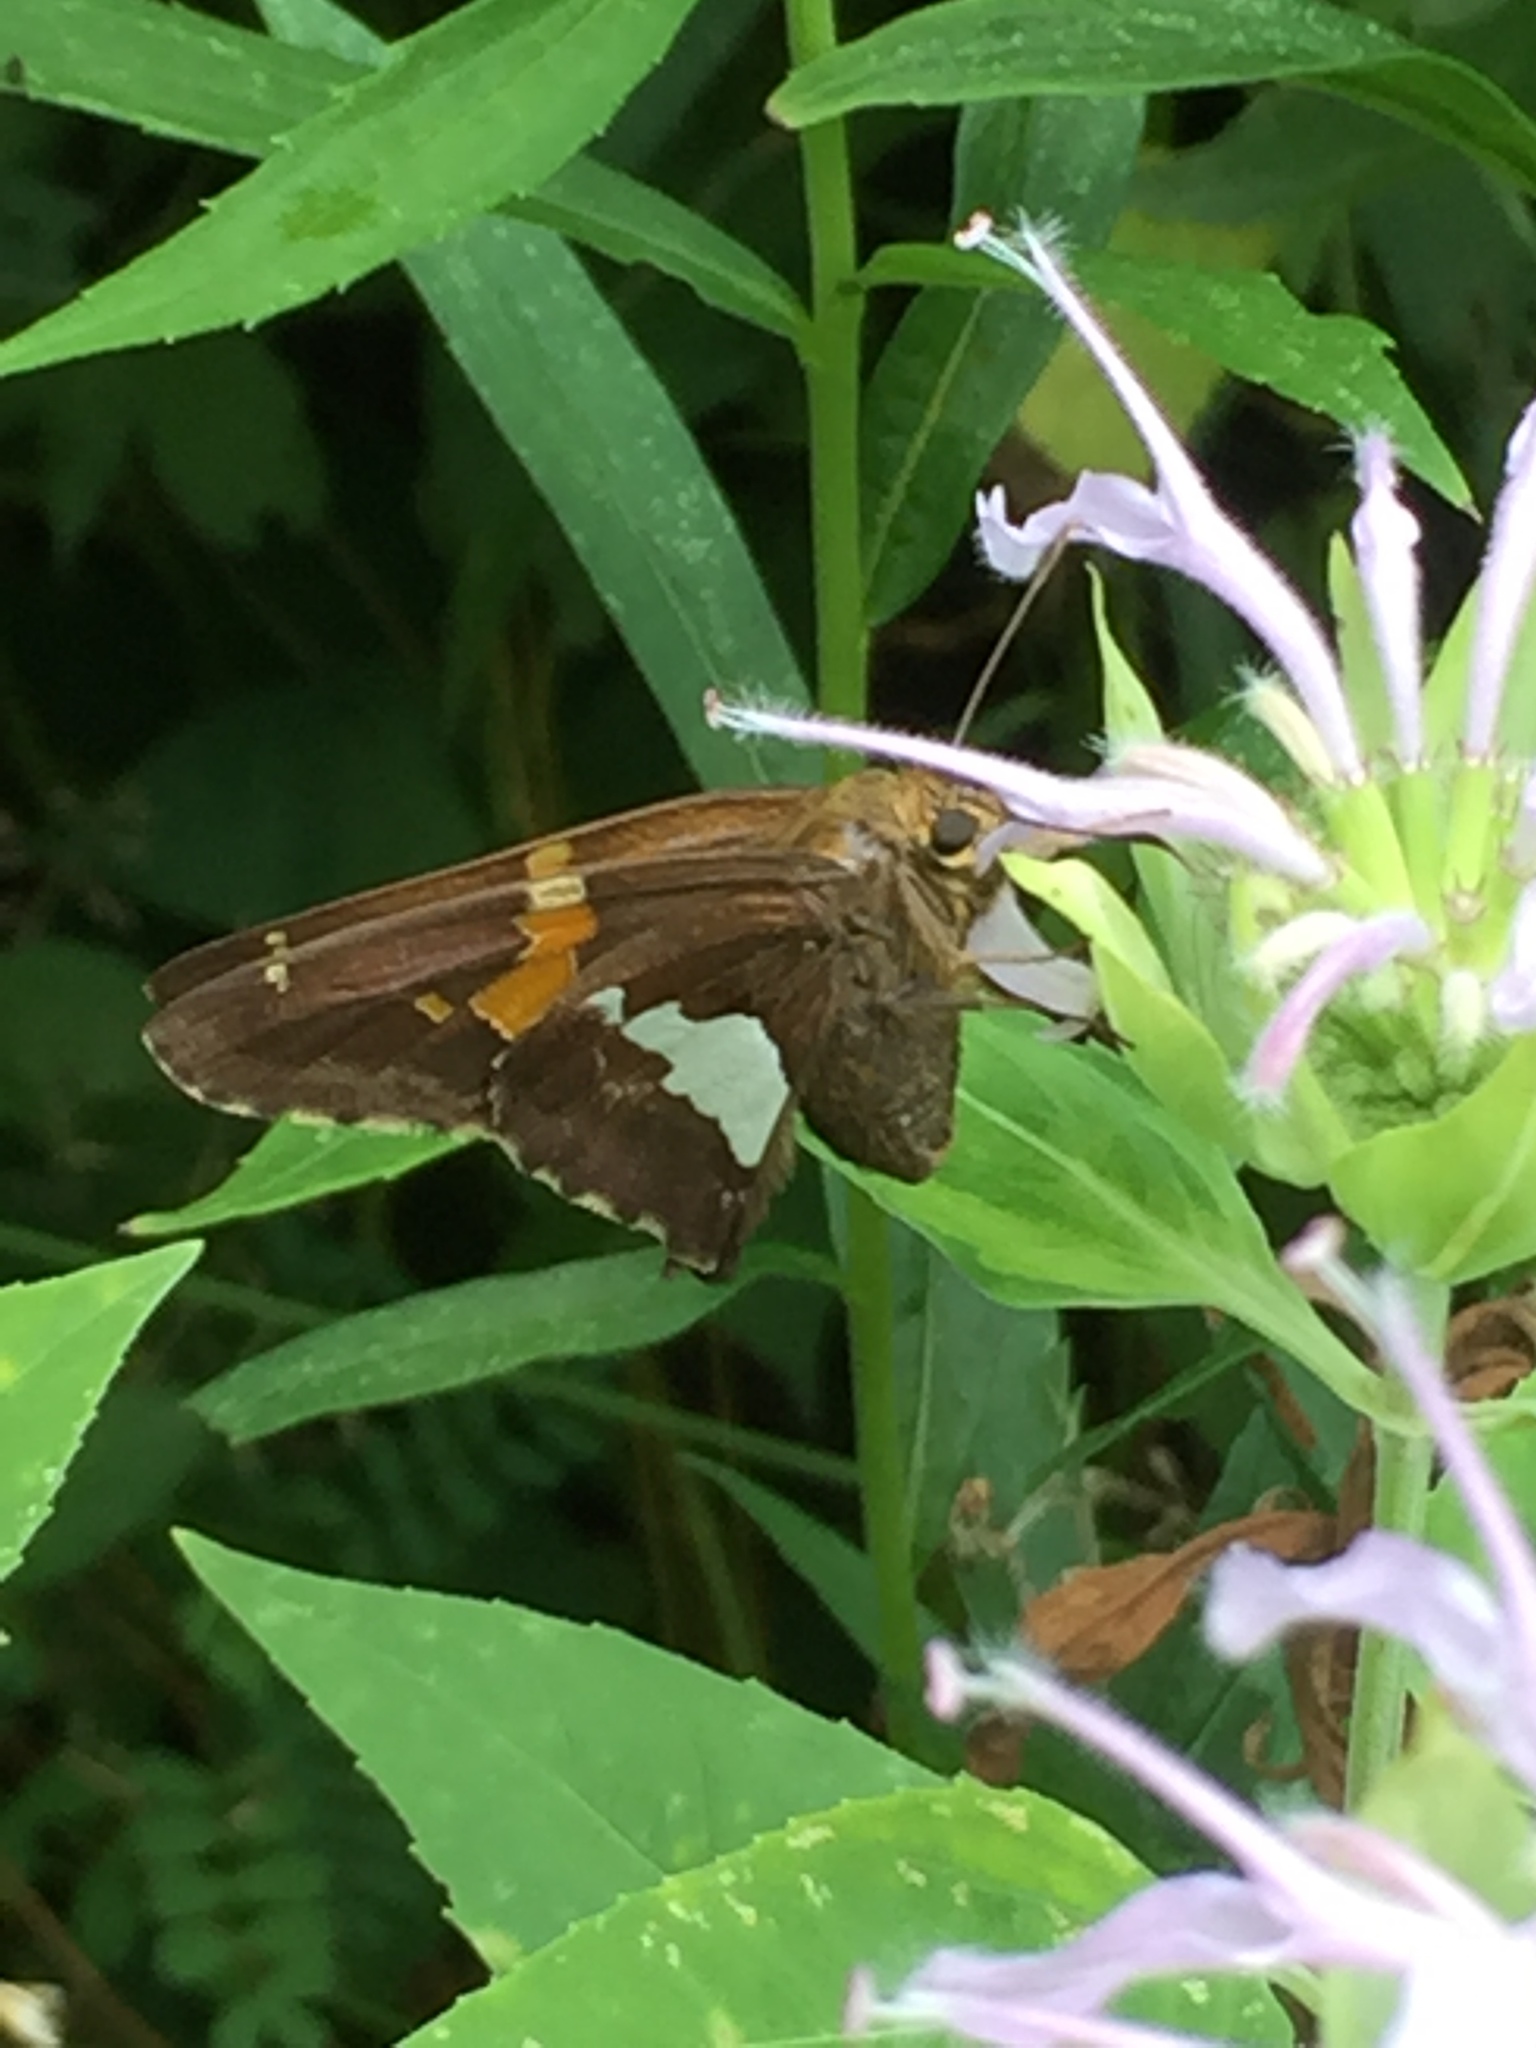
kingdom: Animalia
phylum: Arthropoda
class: Insecta
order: Lepidoptera
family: Hesperiidae
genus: Epargyreus
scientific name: Epargyreus clarus
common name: Silver-spotted skipper
